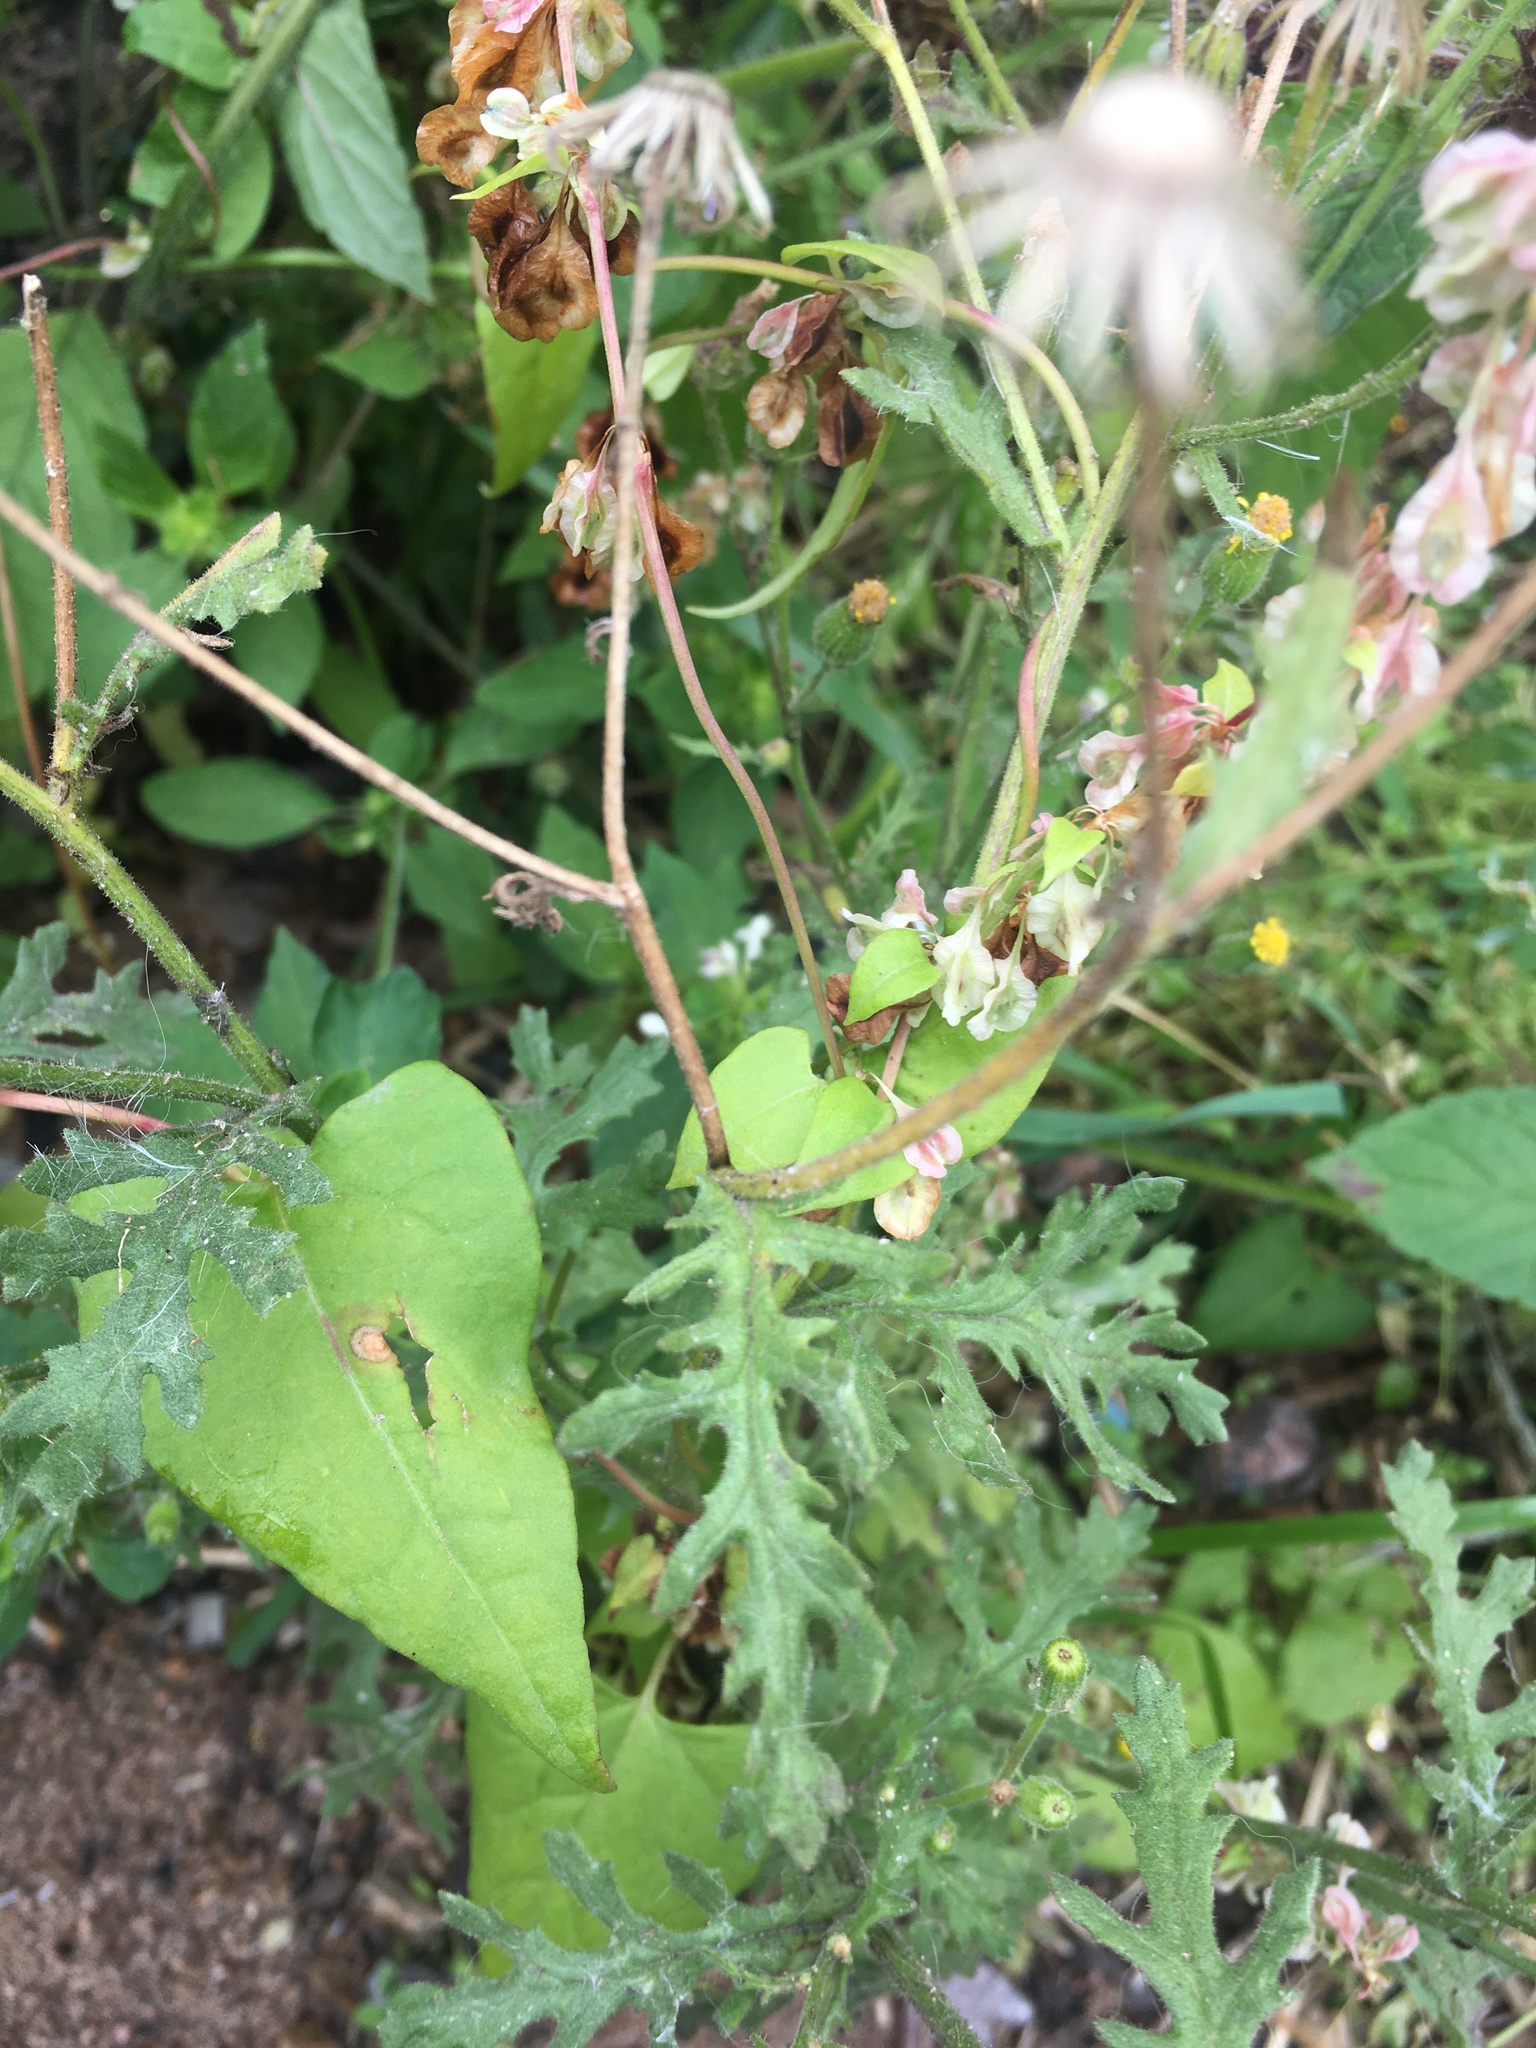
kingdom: Plantae
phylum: Tracheophyta
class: Magnoliopsida
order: Asterales
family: Asteraceae
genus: Senecio
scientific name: Senecio viscosus
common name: Sticky groundsel
